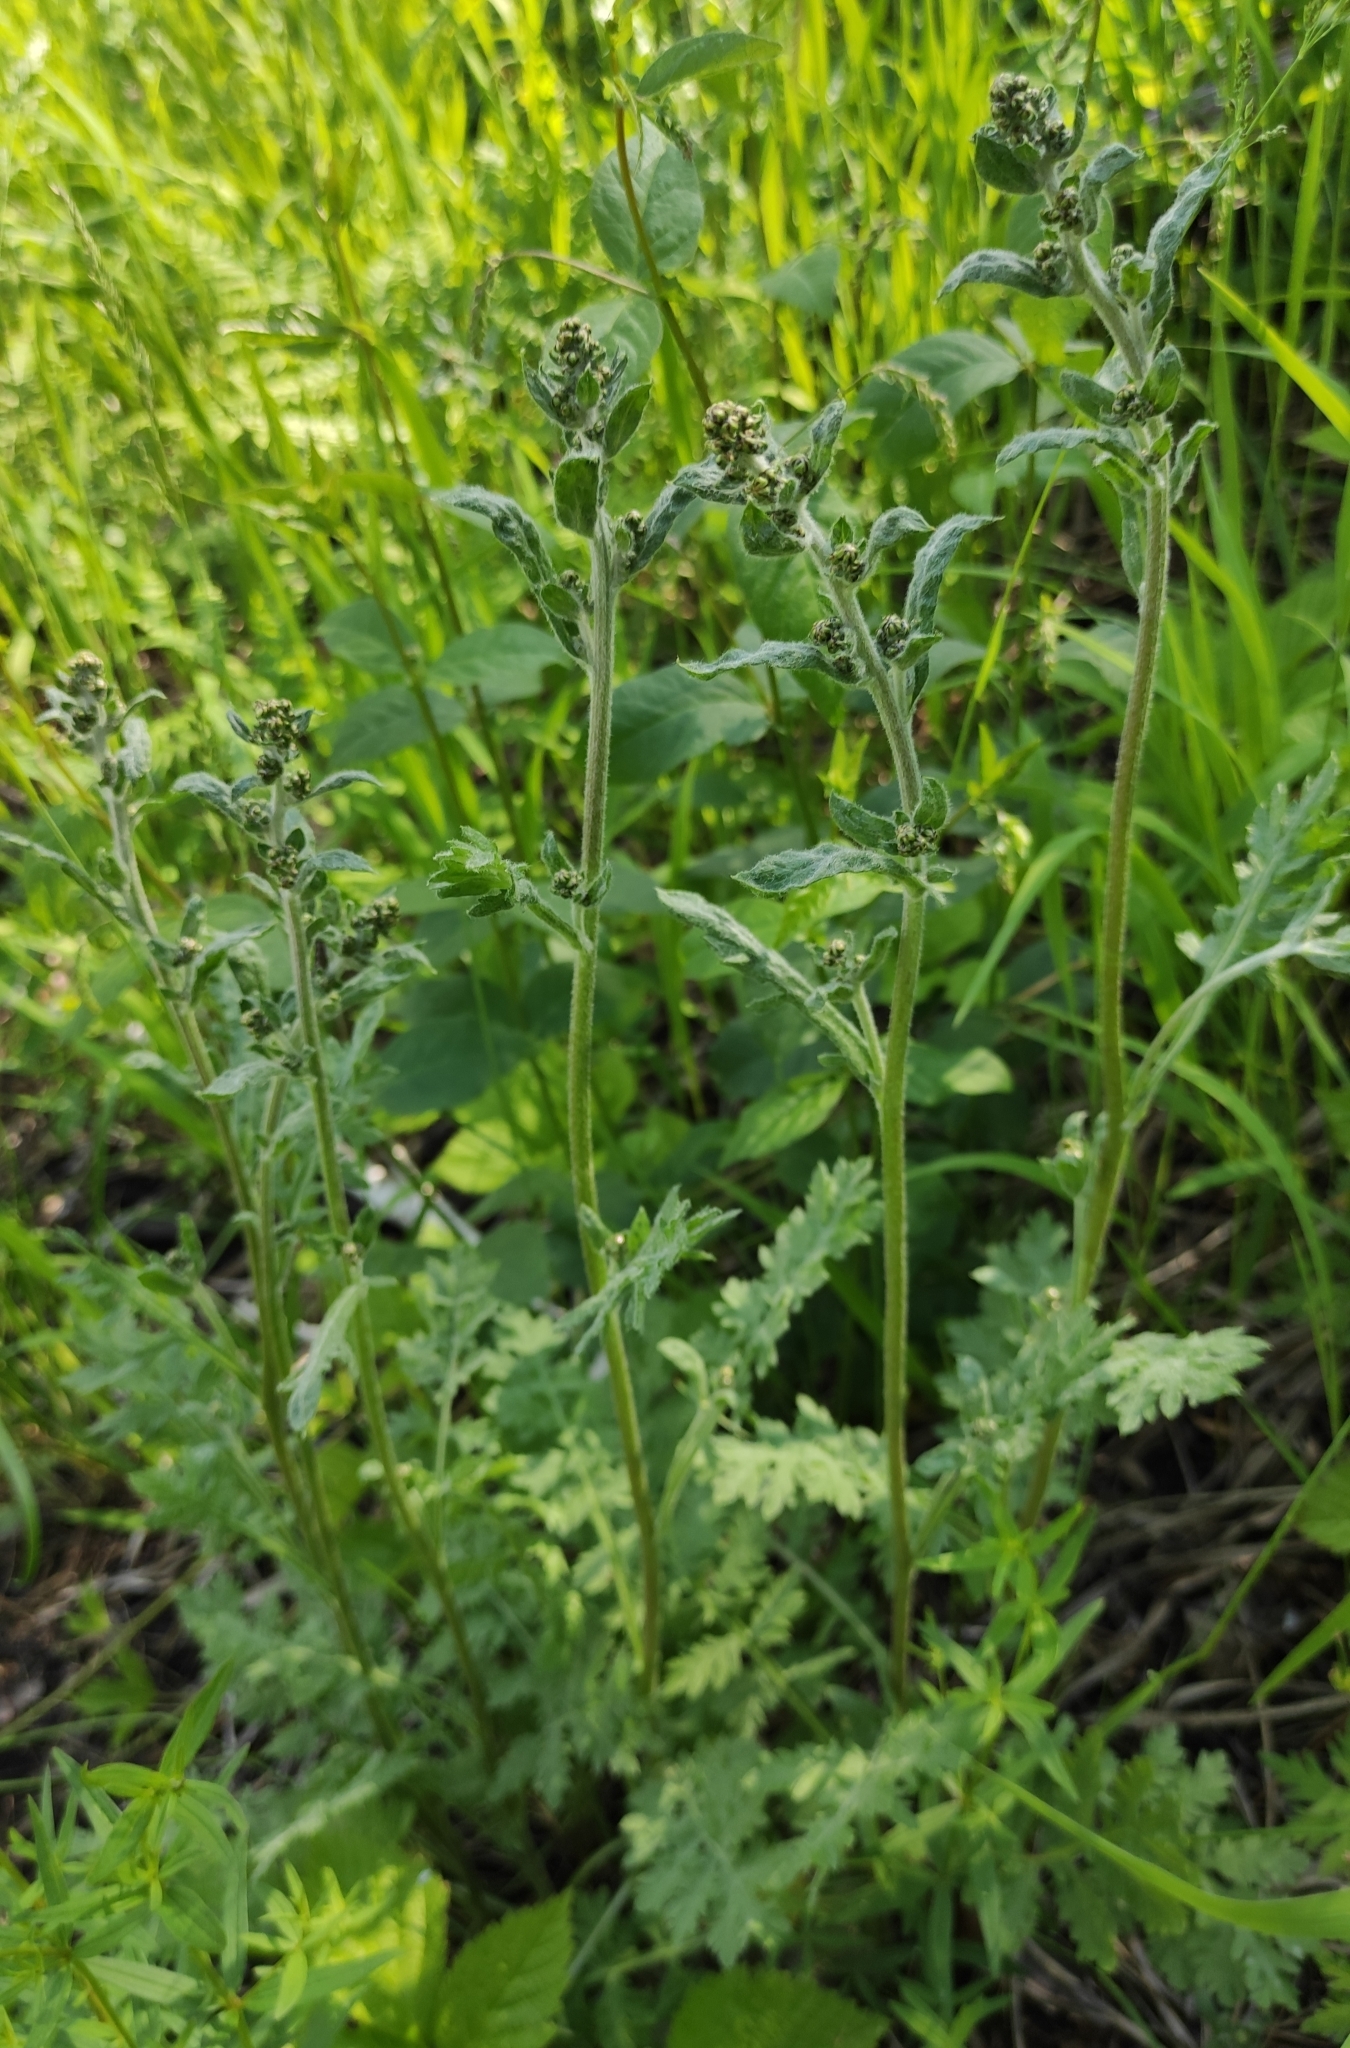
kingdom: Plantae
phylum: Tracheophyta
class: Magnoliopsida
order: Asterales
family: Asteraceae
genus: Artemisia
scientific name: Artemisia tanacetifolia
